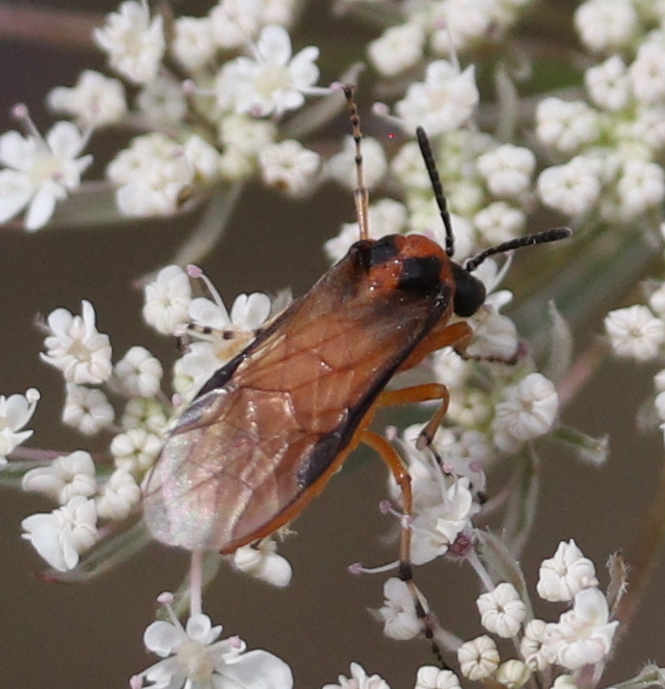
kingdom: Animalia
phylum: Arthropoda
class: Insecta
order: Hymenoptera
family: Tenthredinidae
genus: Athalia
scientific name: Athalia rosae
